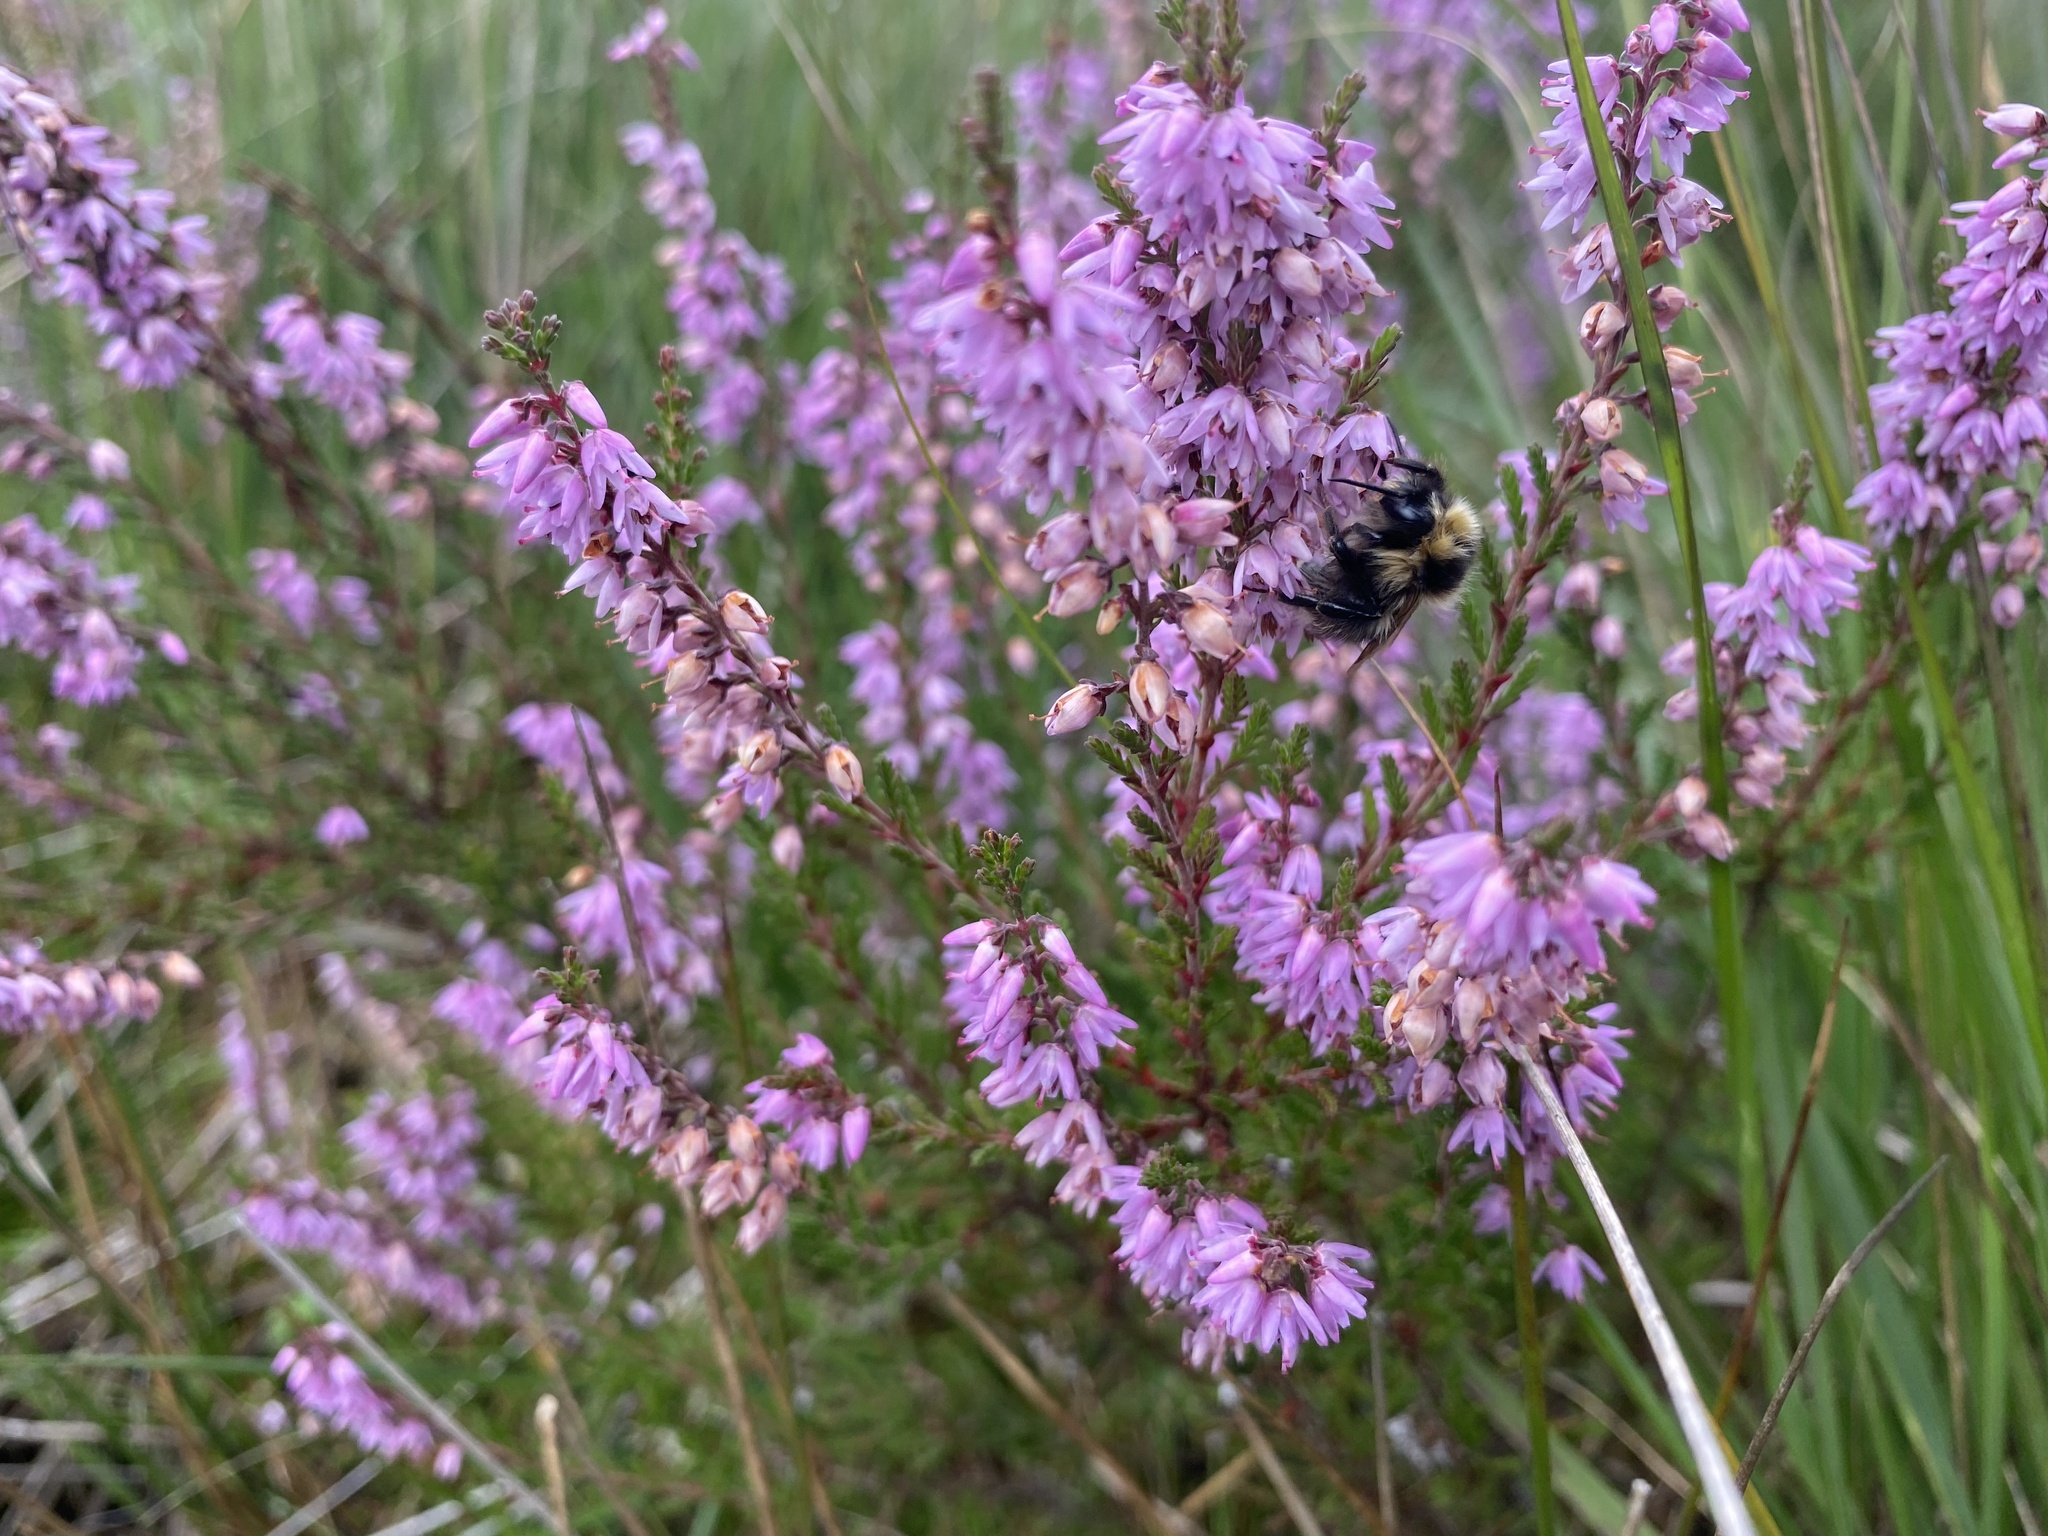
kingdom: Animalia
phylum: Arthropoda
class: Insecta
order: Hymenoptera
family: Apidae
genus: Bombus
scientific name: Bombus jonellus
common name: Heath humble-bee
